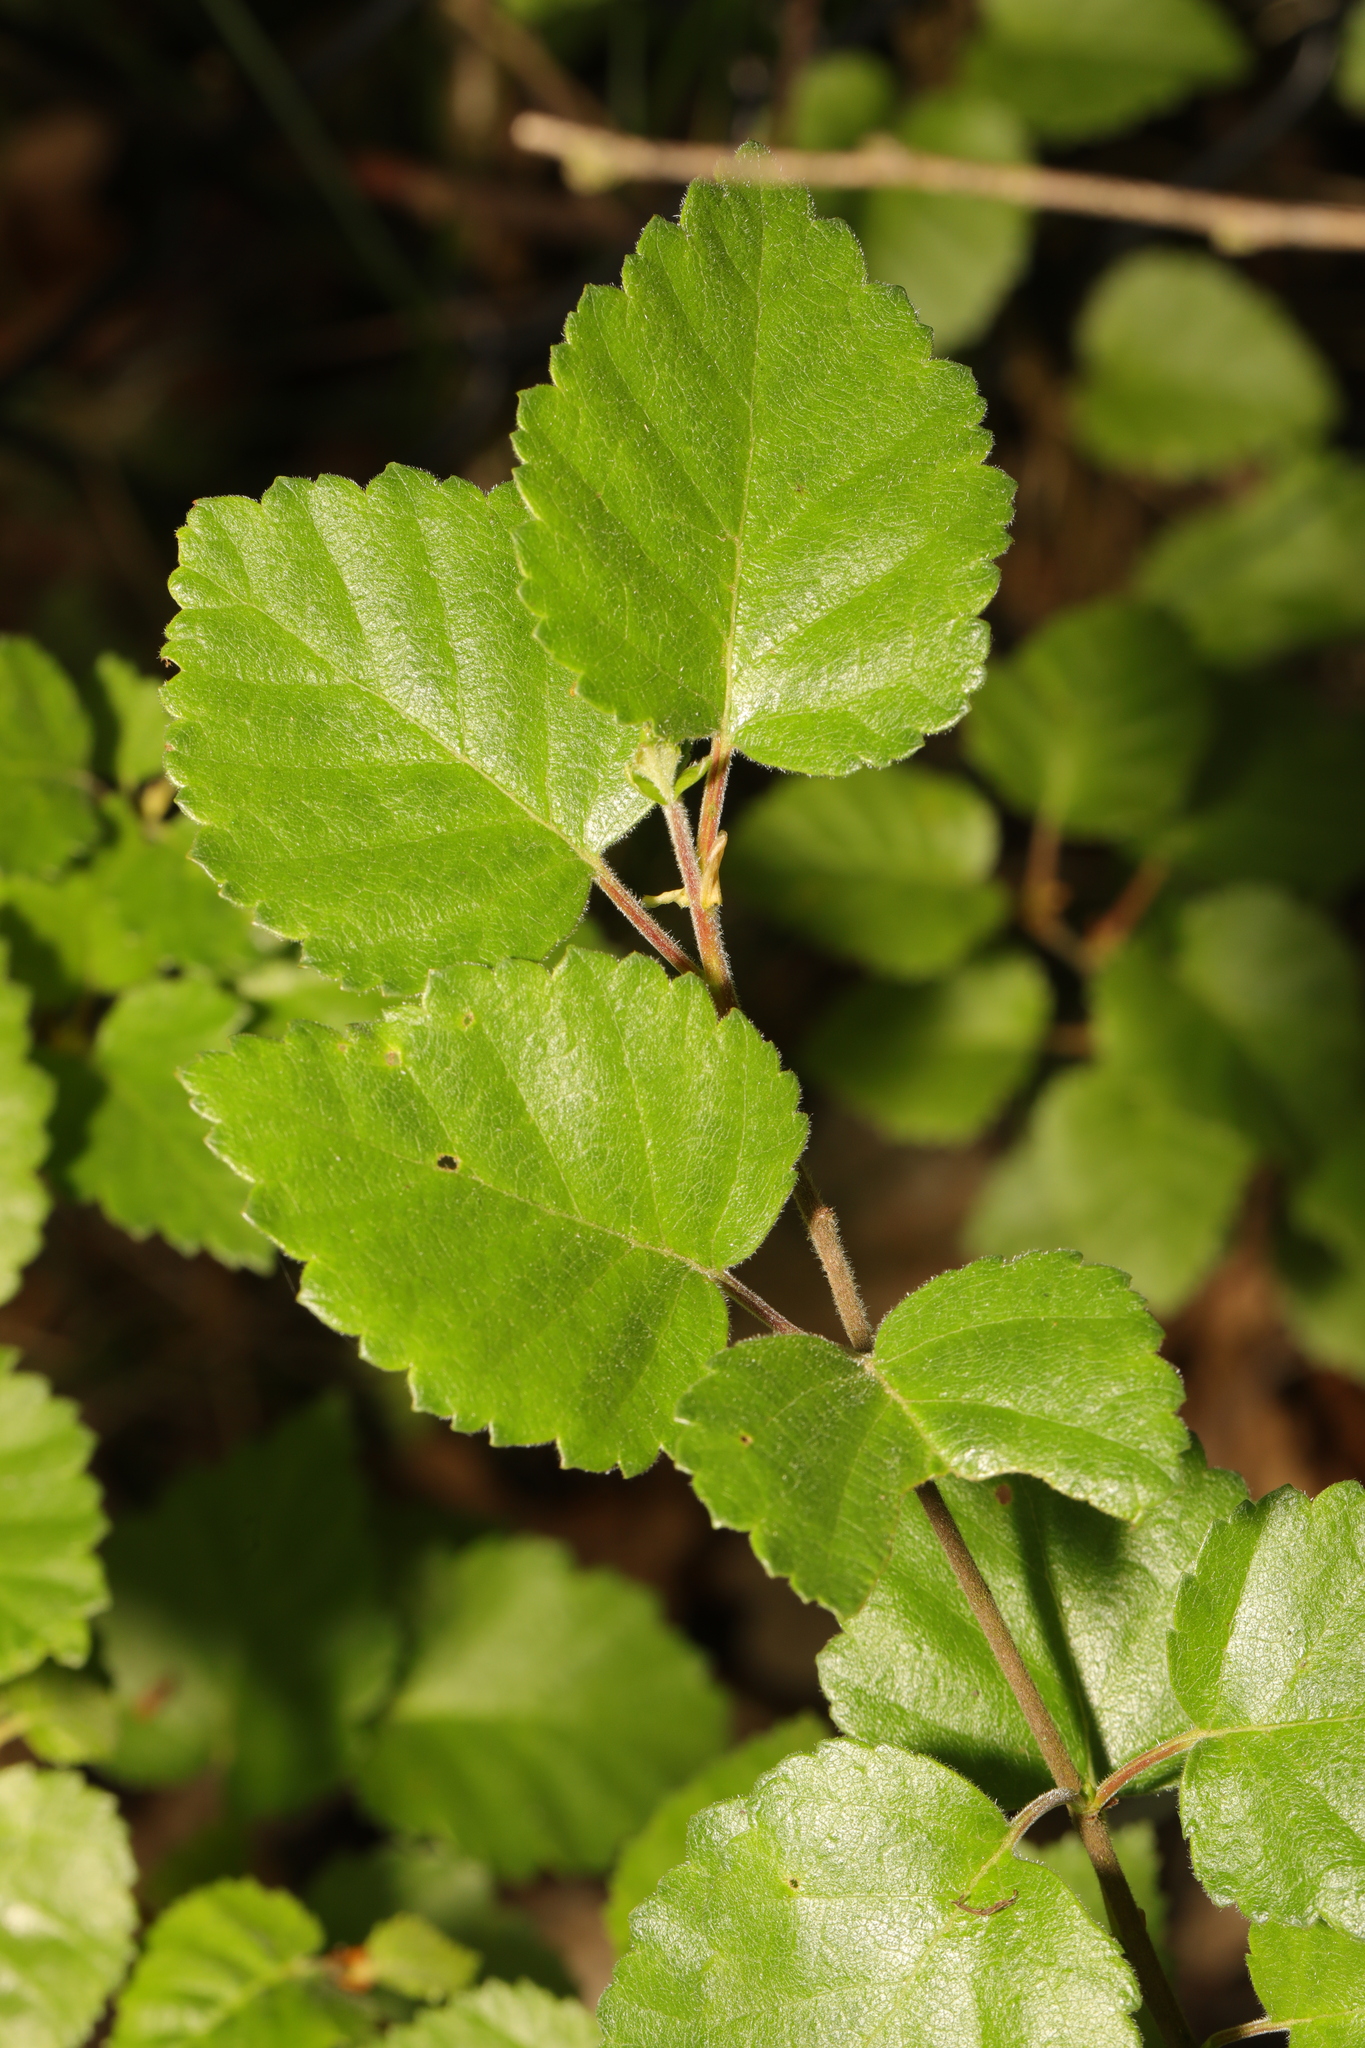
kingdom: Plantae
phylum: Tracheophyta
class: Magnoliopsida
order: Fagales
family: Betulaceae
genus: Betula
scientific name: Betula pubescens
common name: Downy birch
